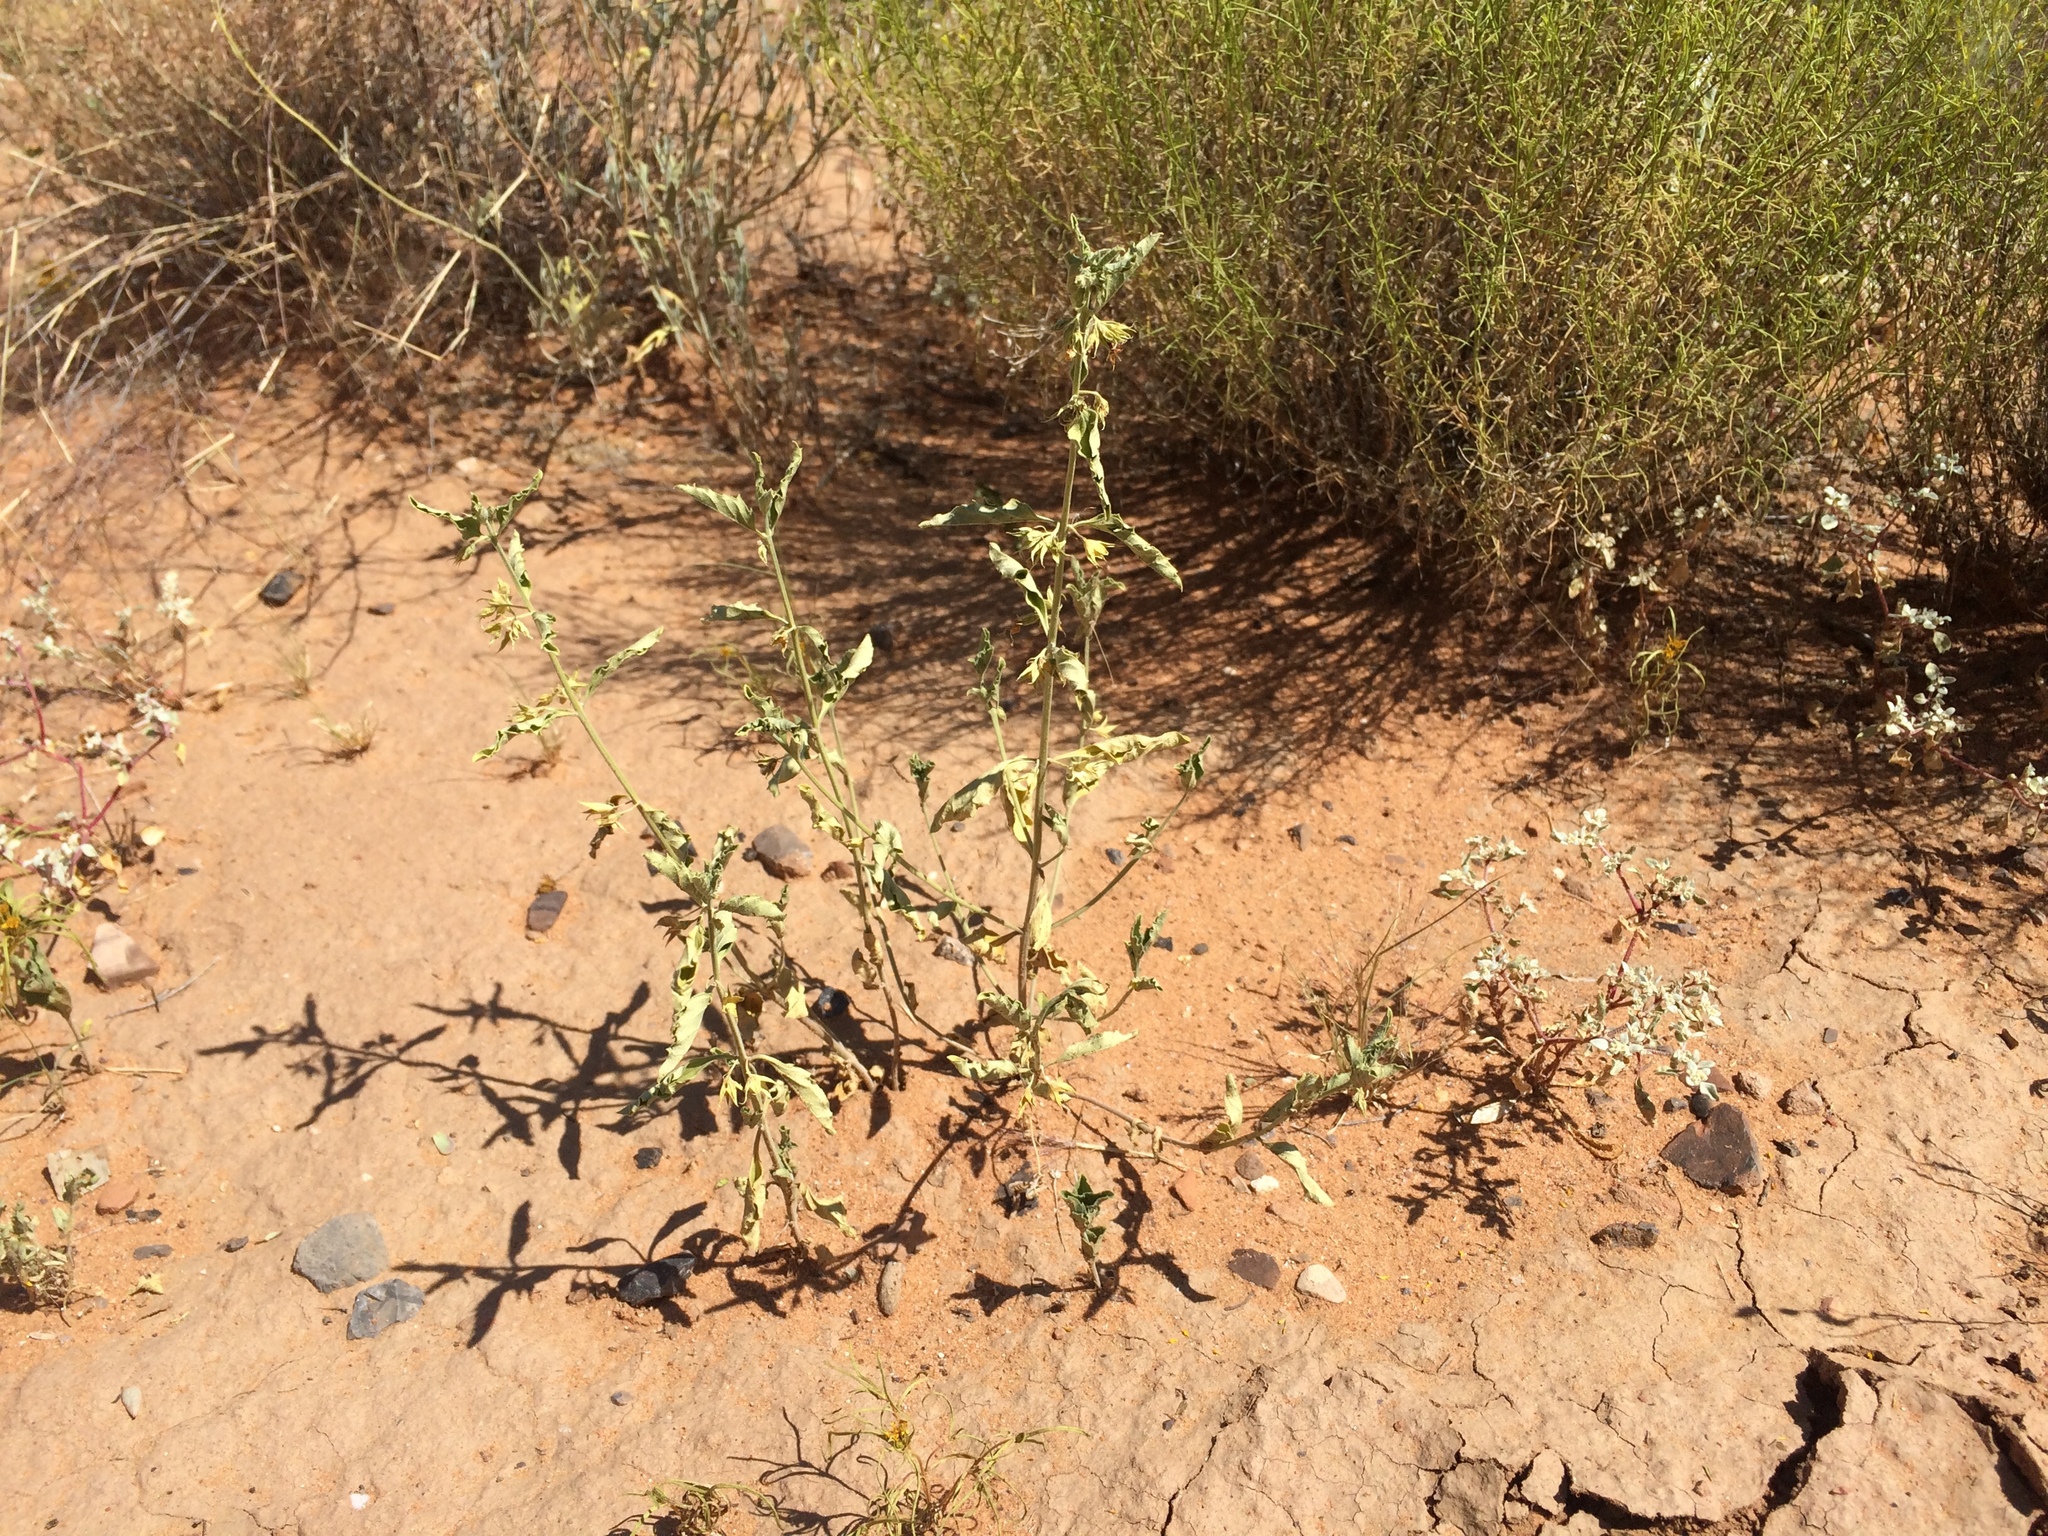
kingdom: Plantae
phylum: Tracheophyta
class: Magnoliopsida
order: Lamiales
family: Lamiaceae
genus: Tetraclea
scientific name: Tetraclea coulteri
